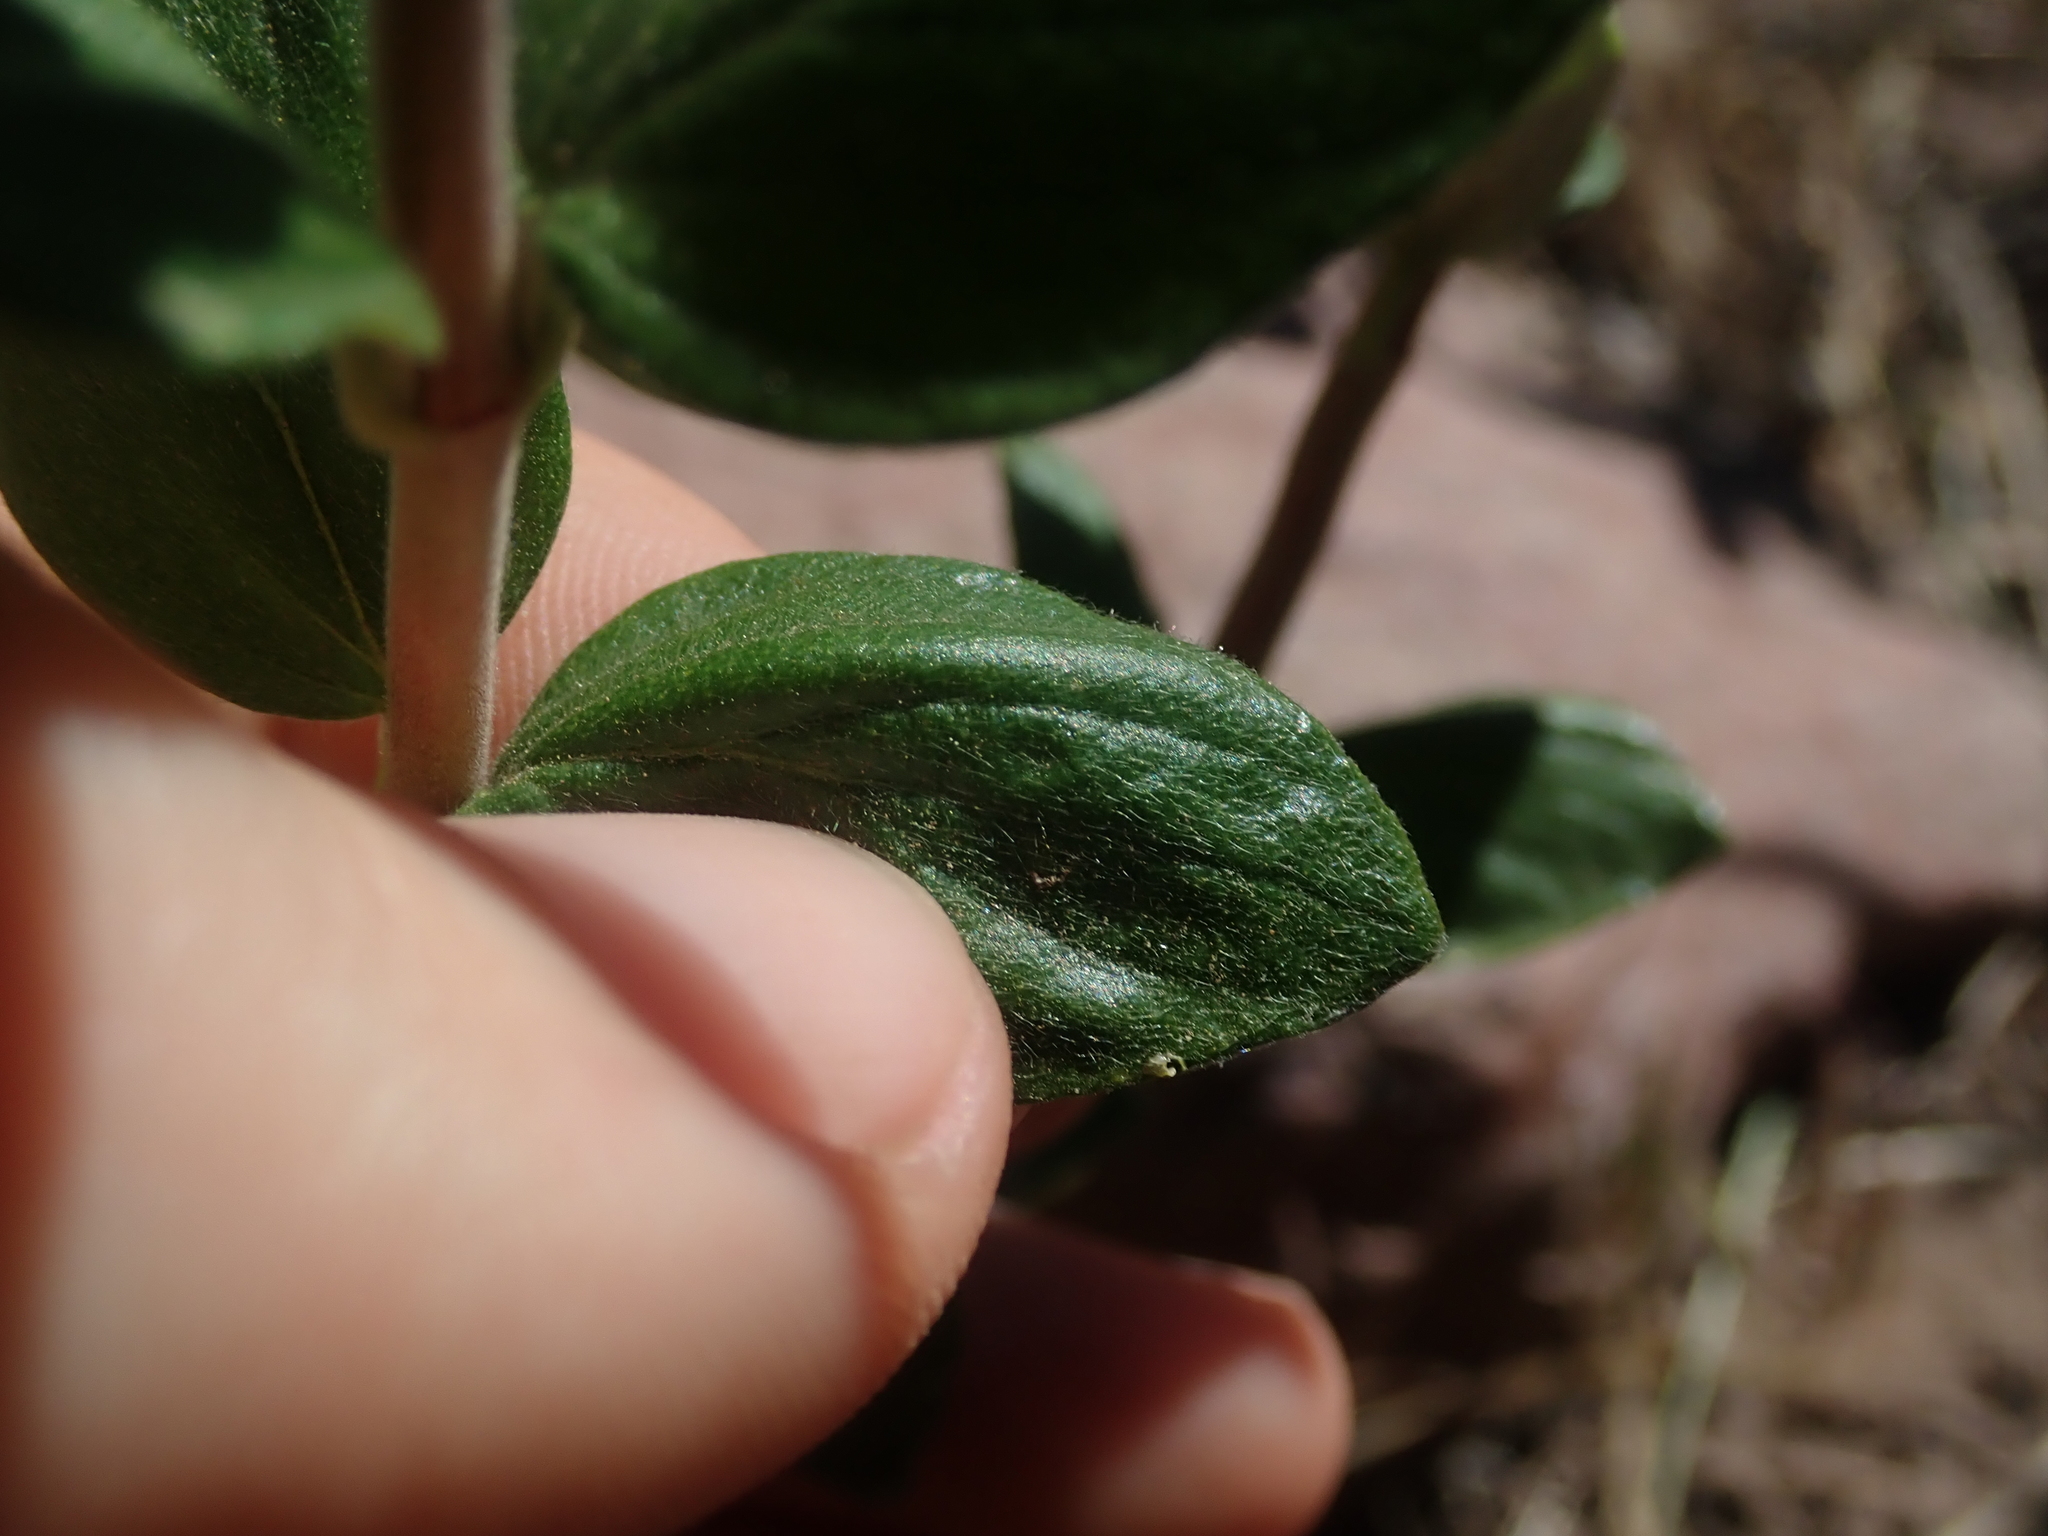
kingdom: Plantae
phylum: Tracheophyta
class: Magnoliopsida
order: Geraniales
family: Vivianiaceae
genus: Viviania
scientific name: Viviania ovata
